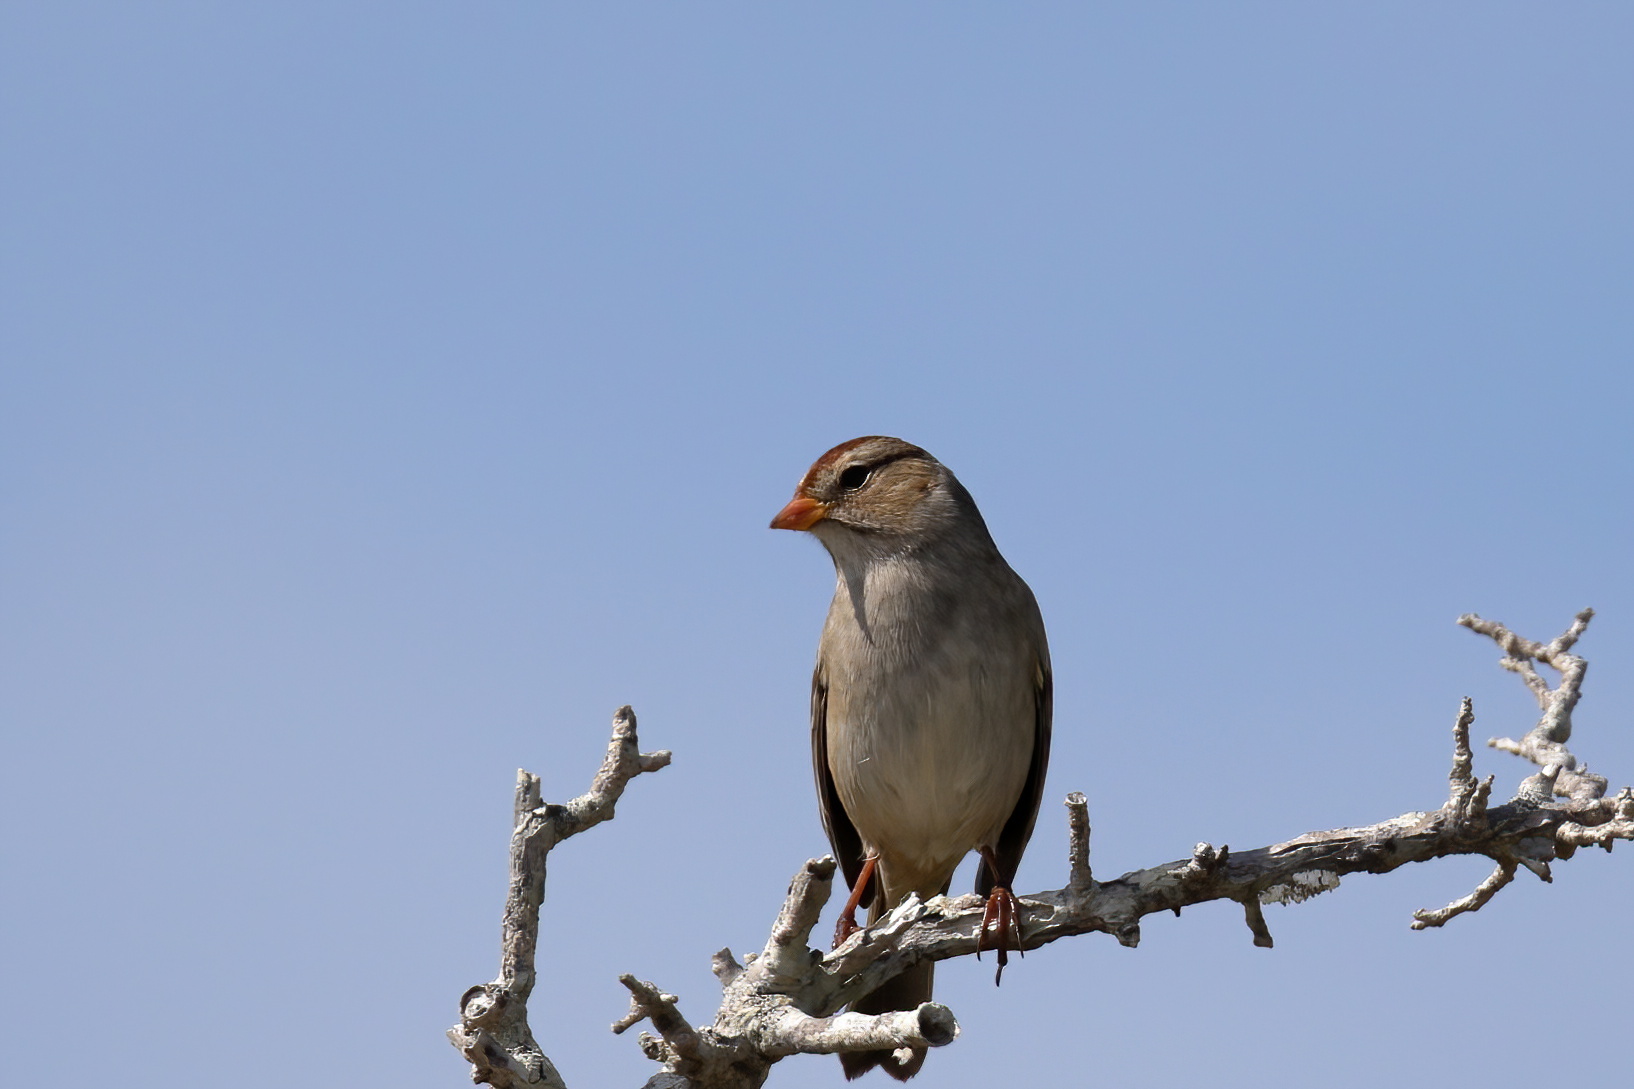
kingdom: Animalia
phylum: Chordata
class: Aves
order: Passeriformes
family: Passerellidae
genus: Zonotrichia
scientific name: Zonotrichia leucophrys
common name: White-crowned sparrow
